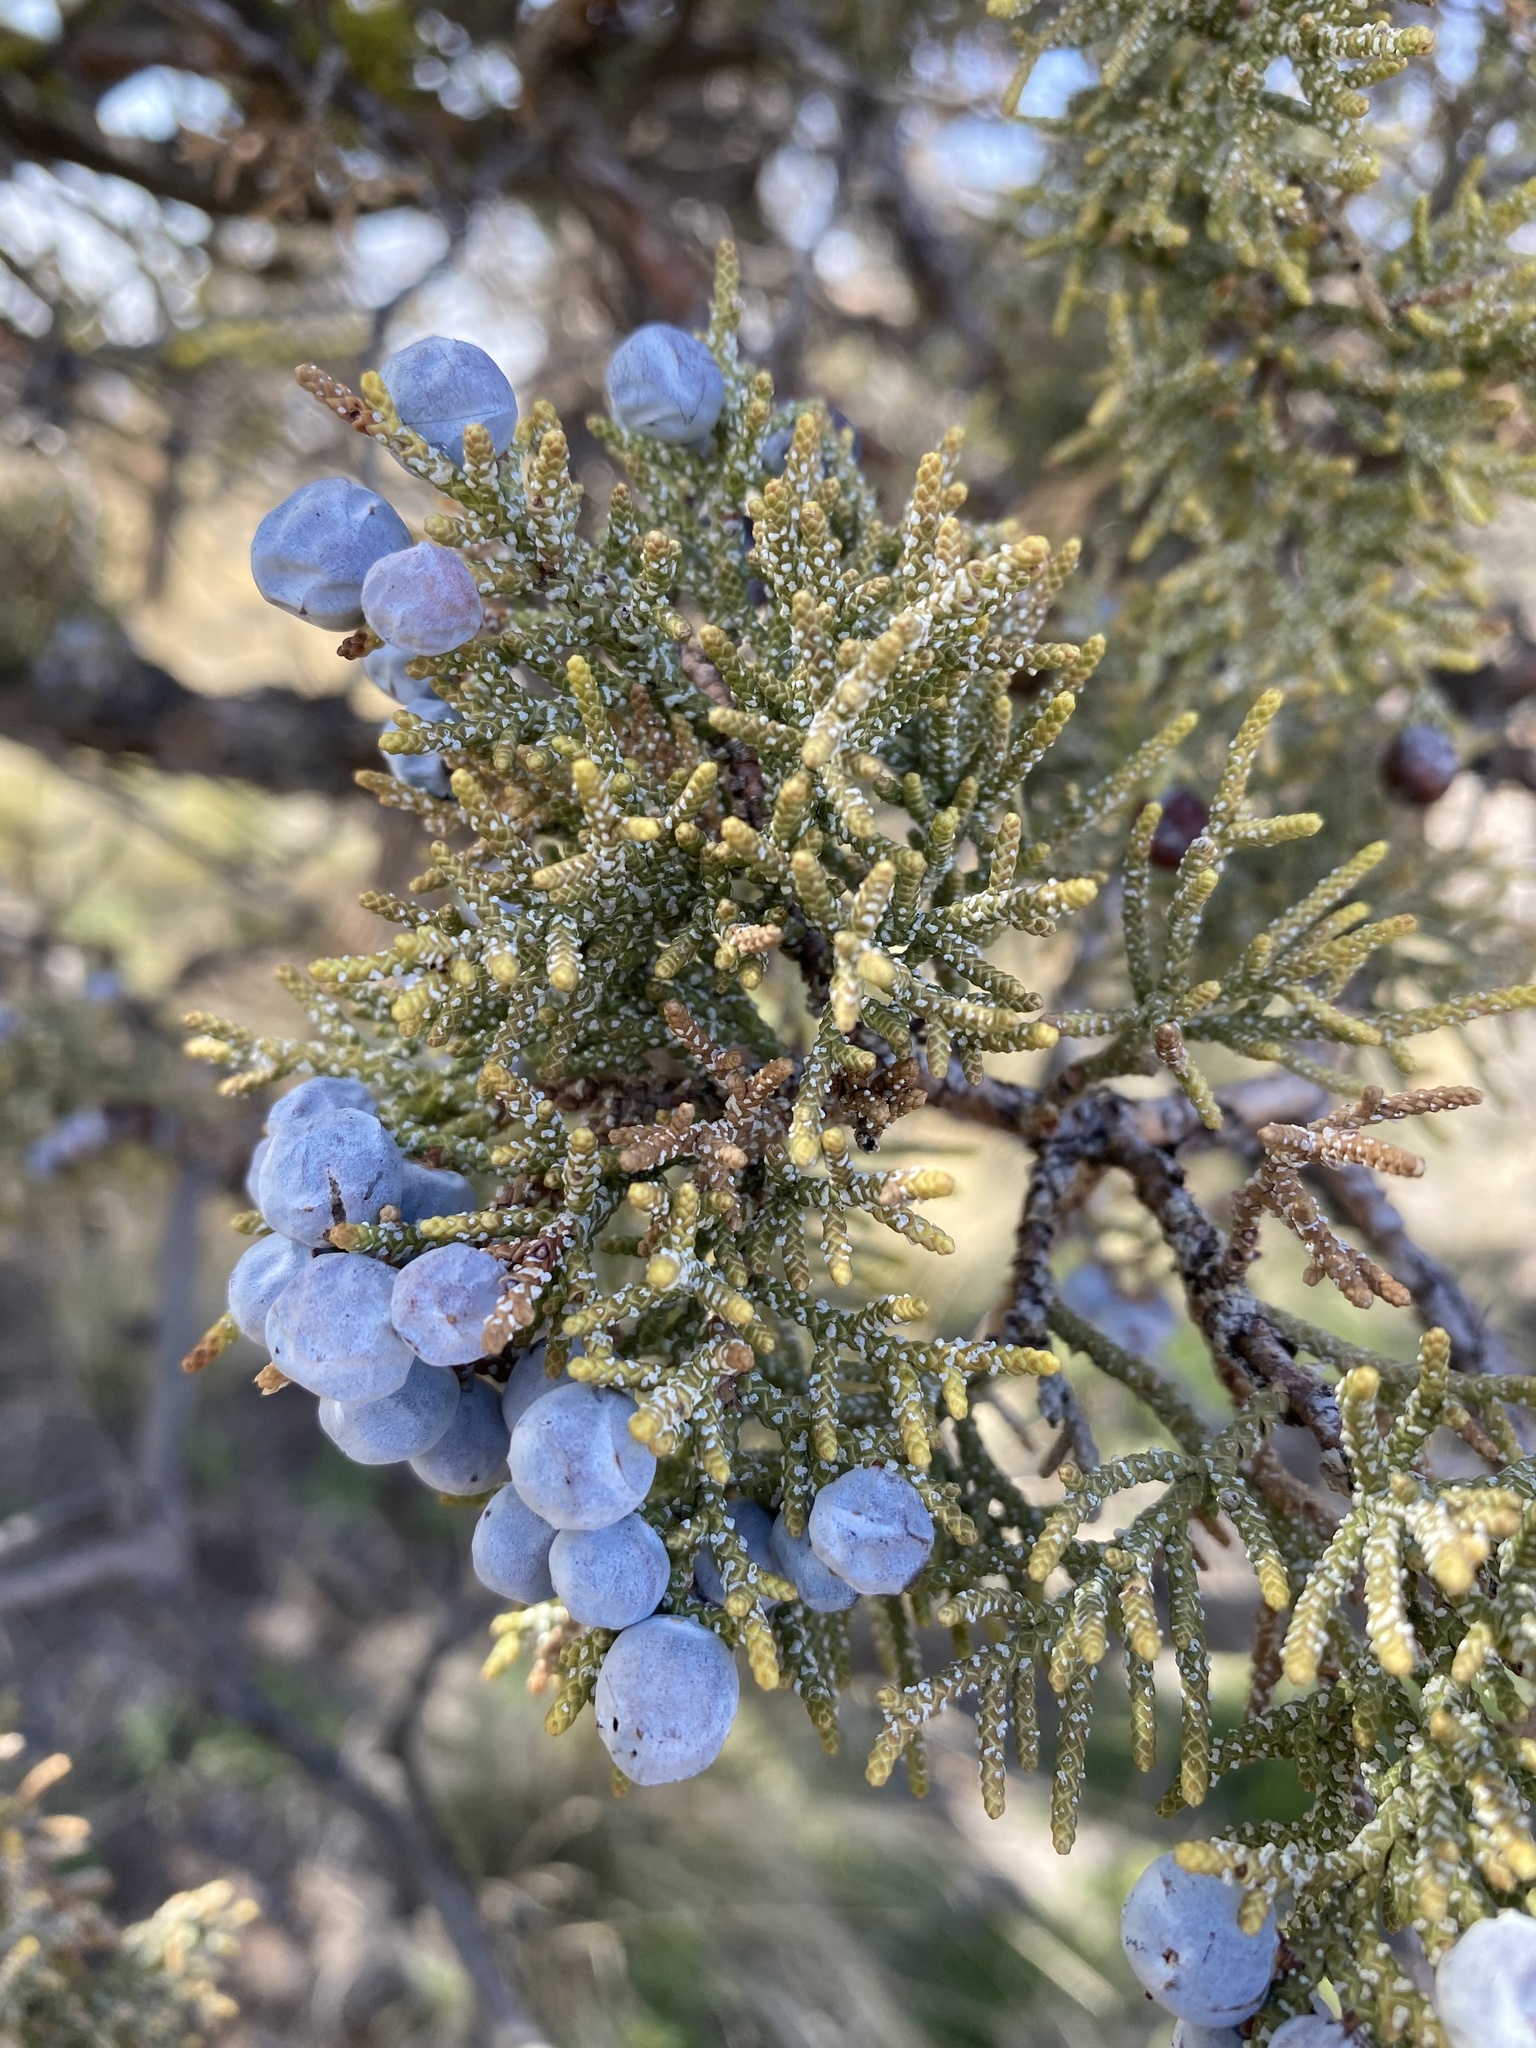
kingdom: Plantae
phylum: Tracheophyta
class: Pinopsida
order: Pinales
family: Cupressaceae
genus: Juniperus
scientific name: Juniperus occidentalis
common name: Western juniper
